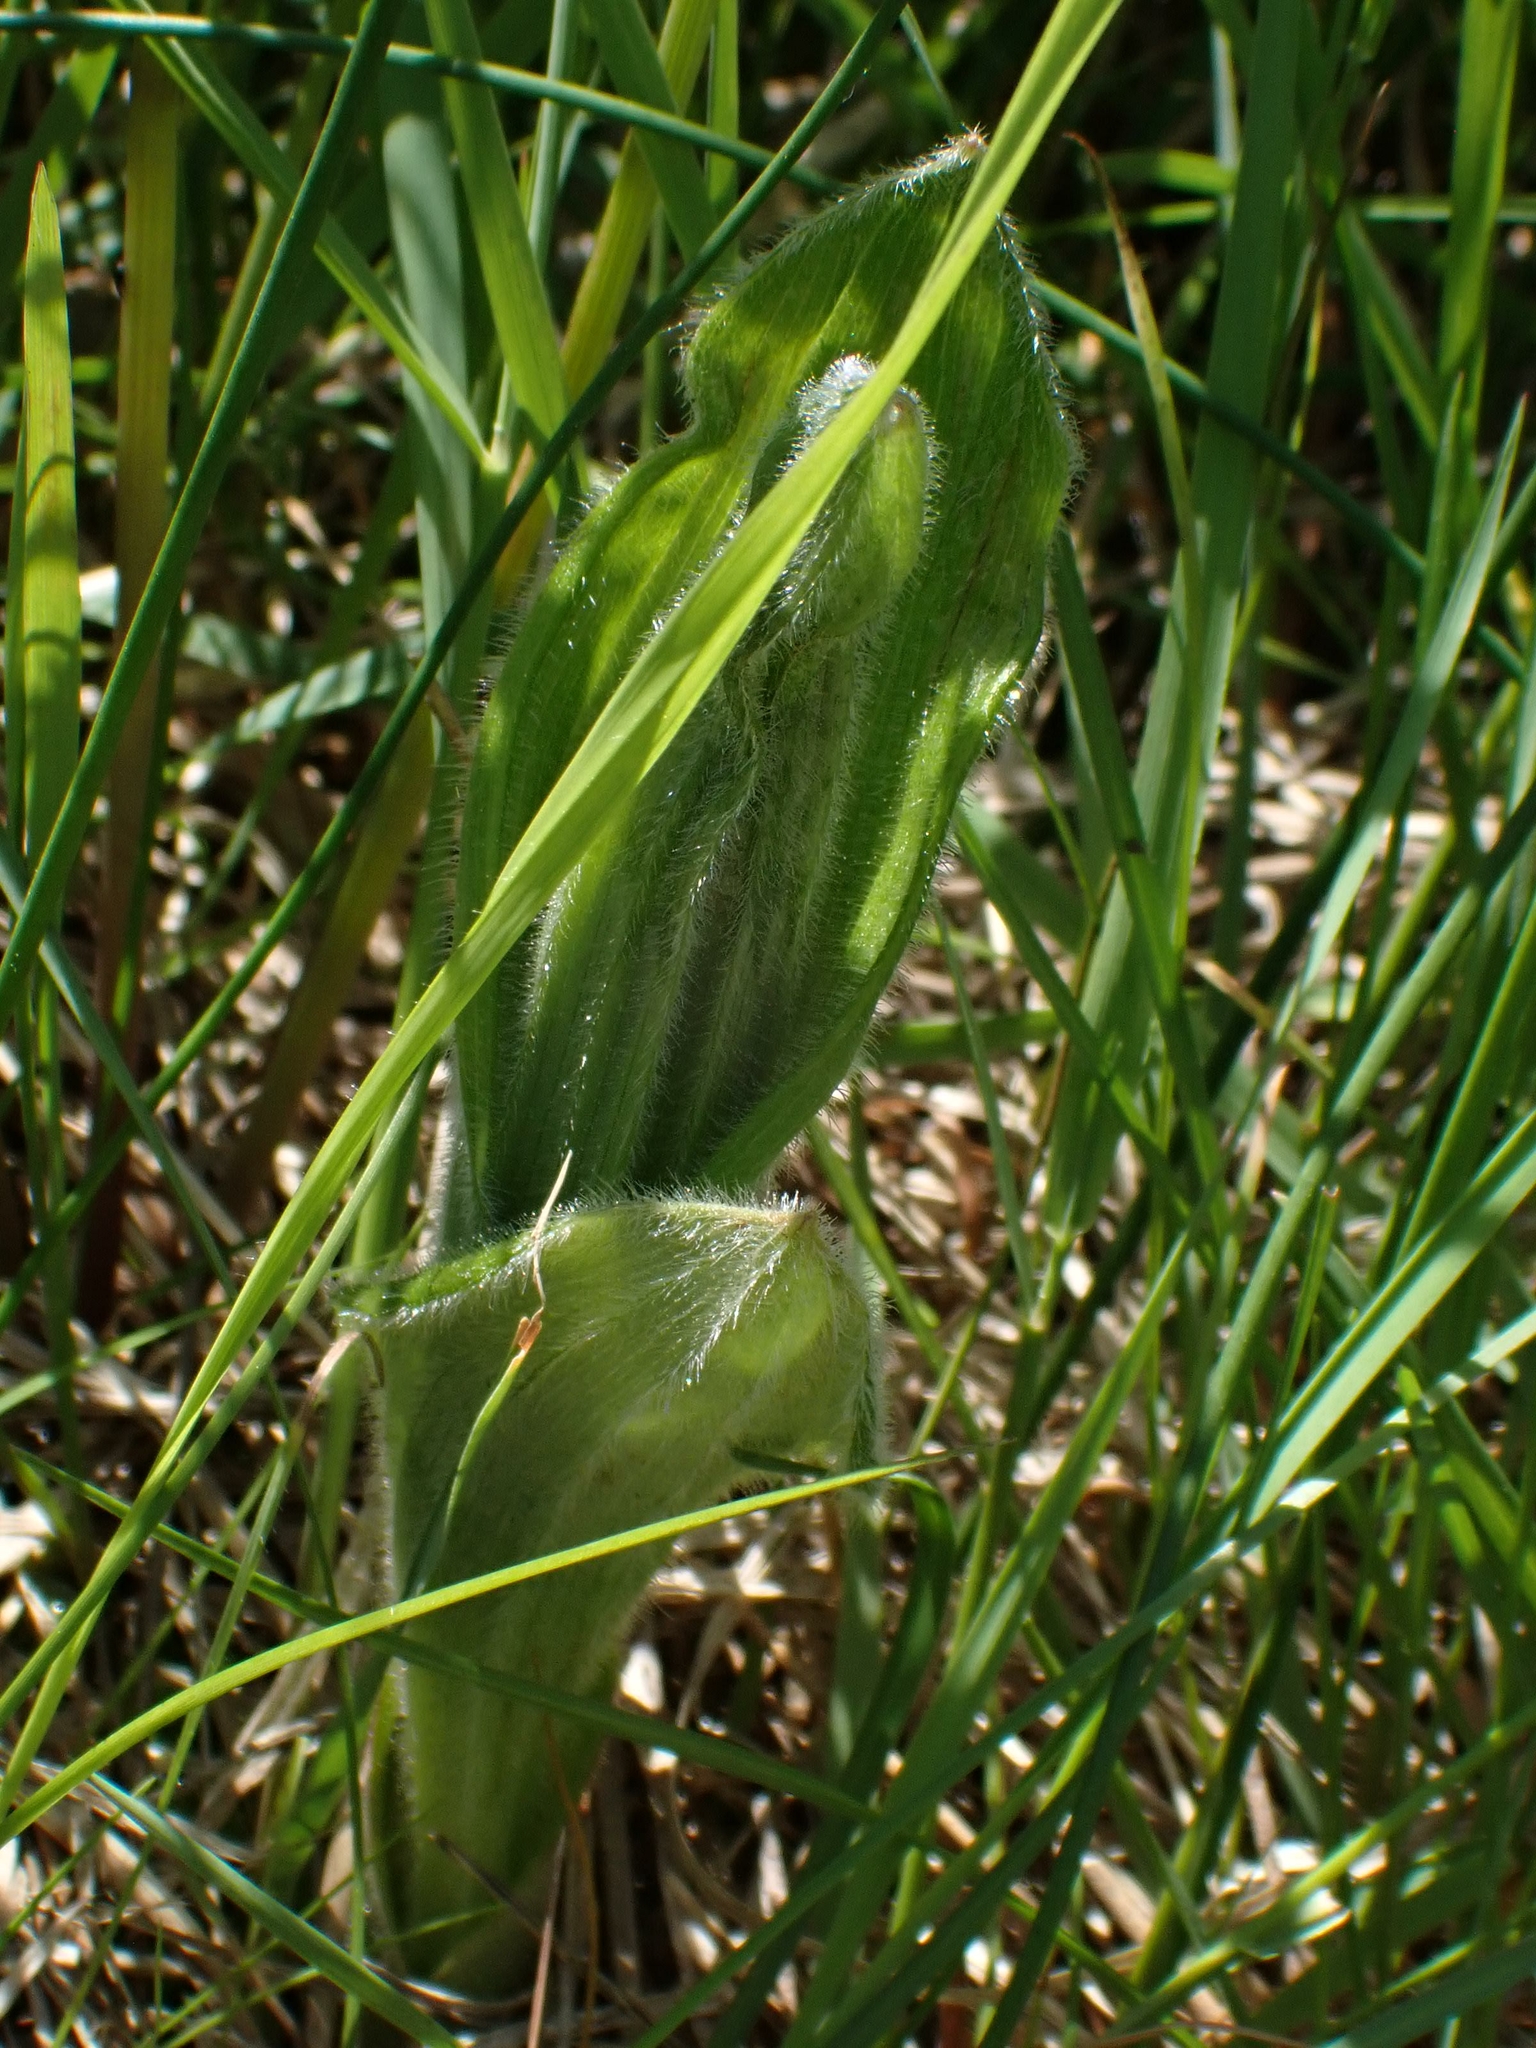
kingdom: Plantae
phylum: Tracheophyta
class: Liliopsida
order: Asparagales
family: Orchidaceae
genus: Cypripedium
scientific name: Cypripedium reginae
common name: Queen lady's-slipper
